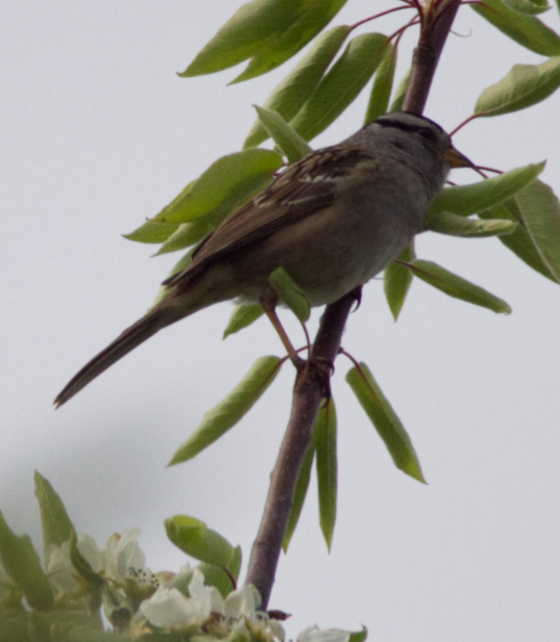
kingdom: Animalia
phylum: Chordata
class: Aves
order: Passeriformes
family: Passerellidae
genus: Zonotrichia
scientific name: Zonotrichia leucophrys
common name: White-crowned sparrow
